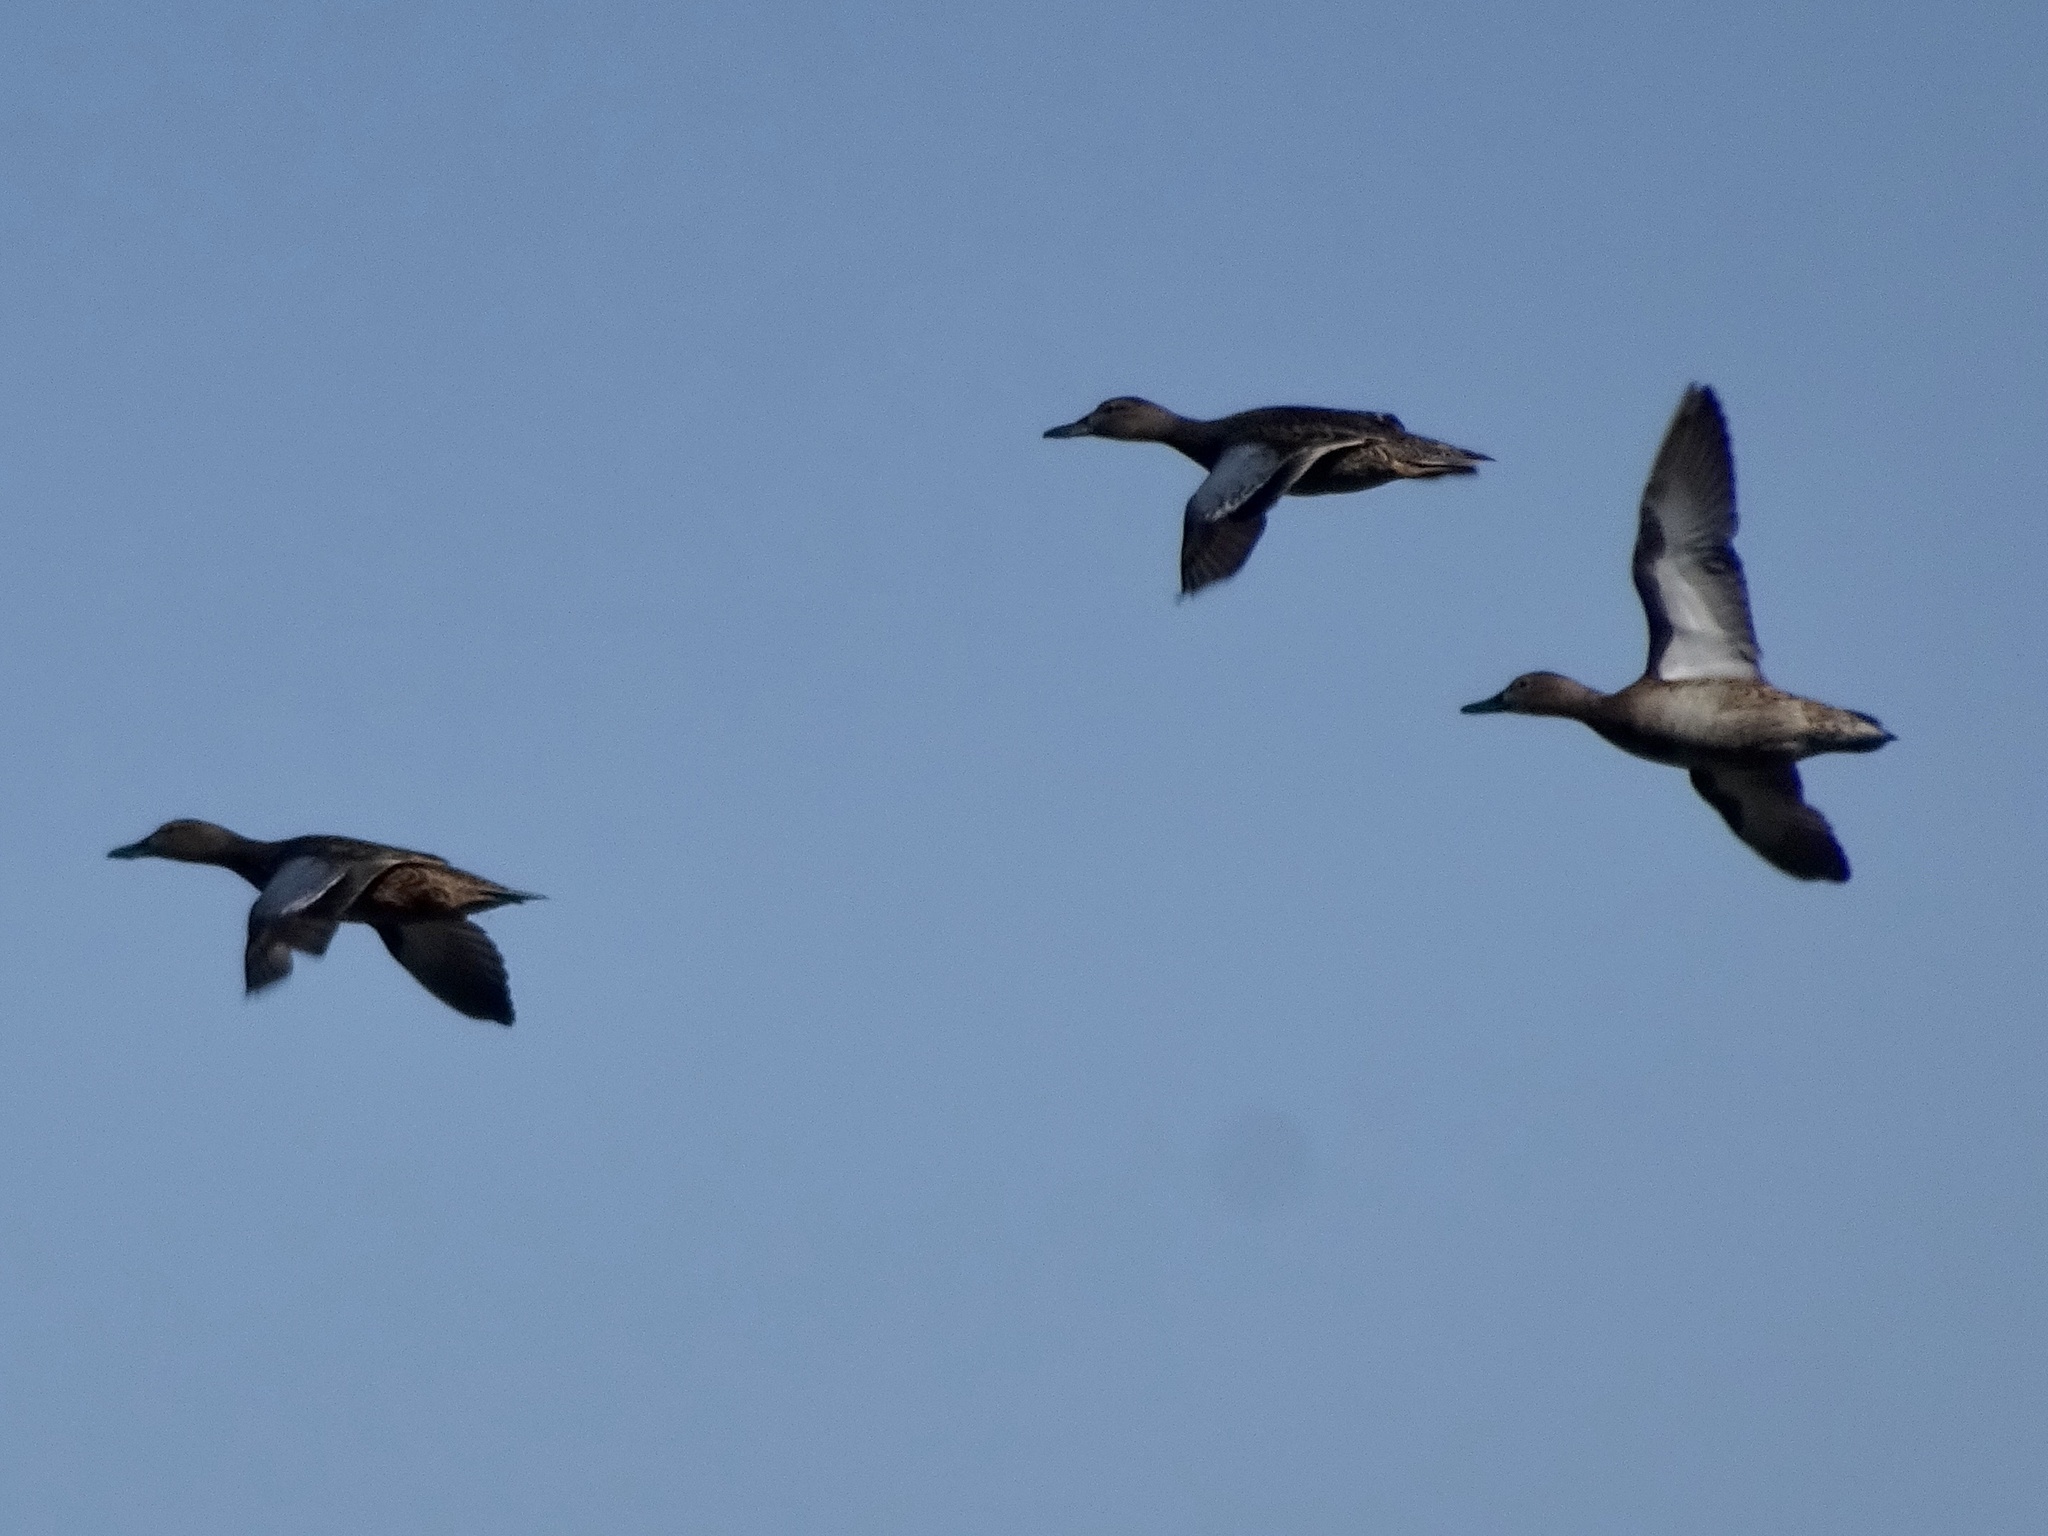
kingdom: Animalia
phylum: Chordata
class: Aves
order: Anseriformes
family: Anatidae
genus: Spatula
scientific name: Spatula cyanoptera
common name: Cinnamon teal
